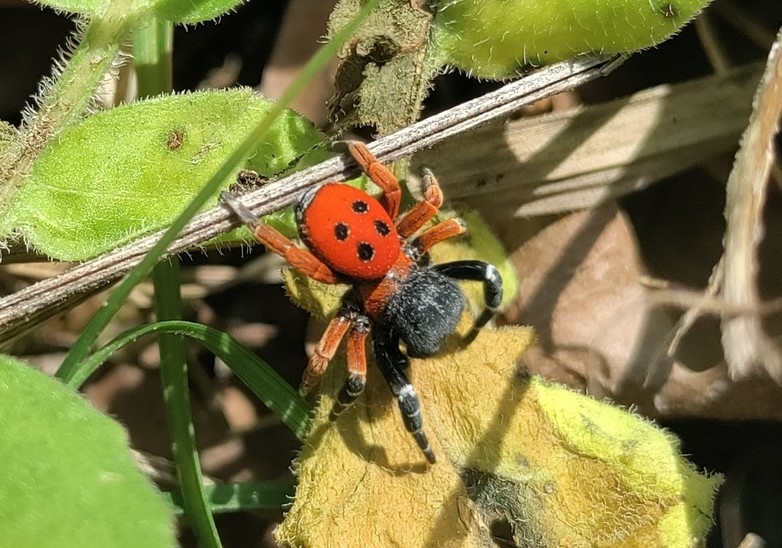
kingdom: Animalia
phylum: Arthropoda
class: Arachnida
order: Araneae
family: Eresidae
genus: Eresus
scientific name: Eresus moravicus
